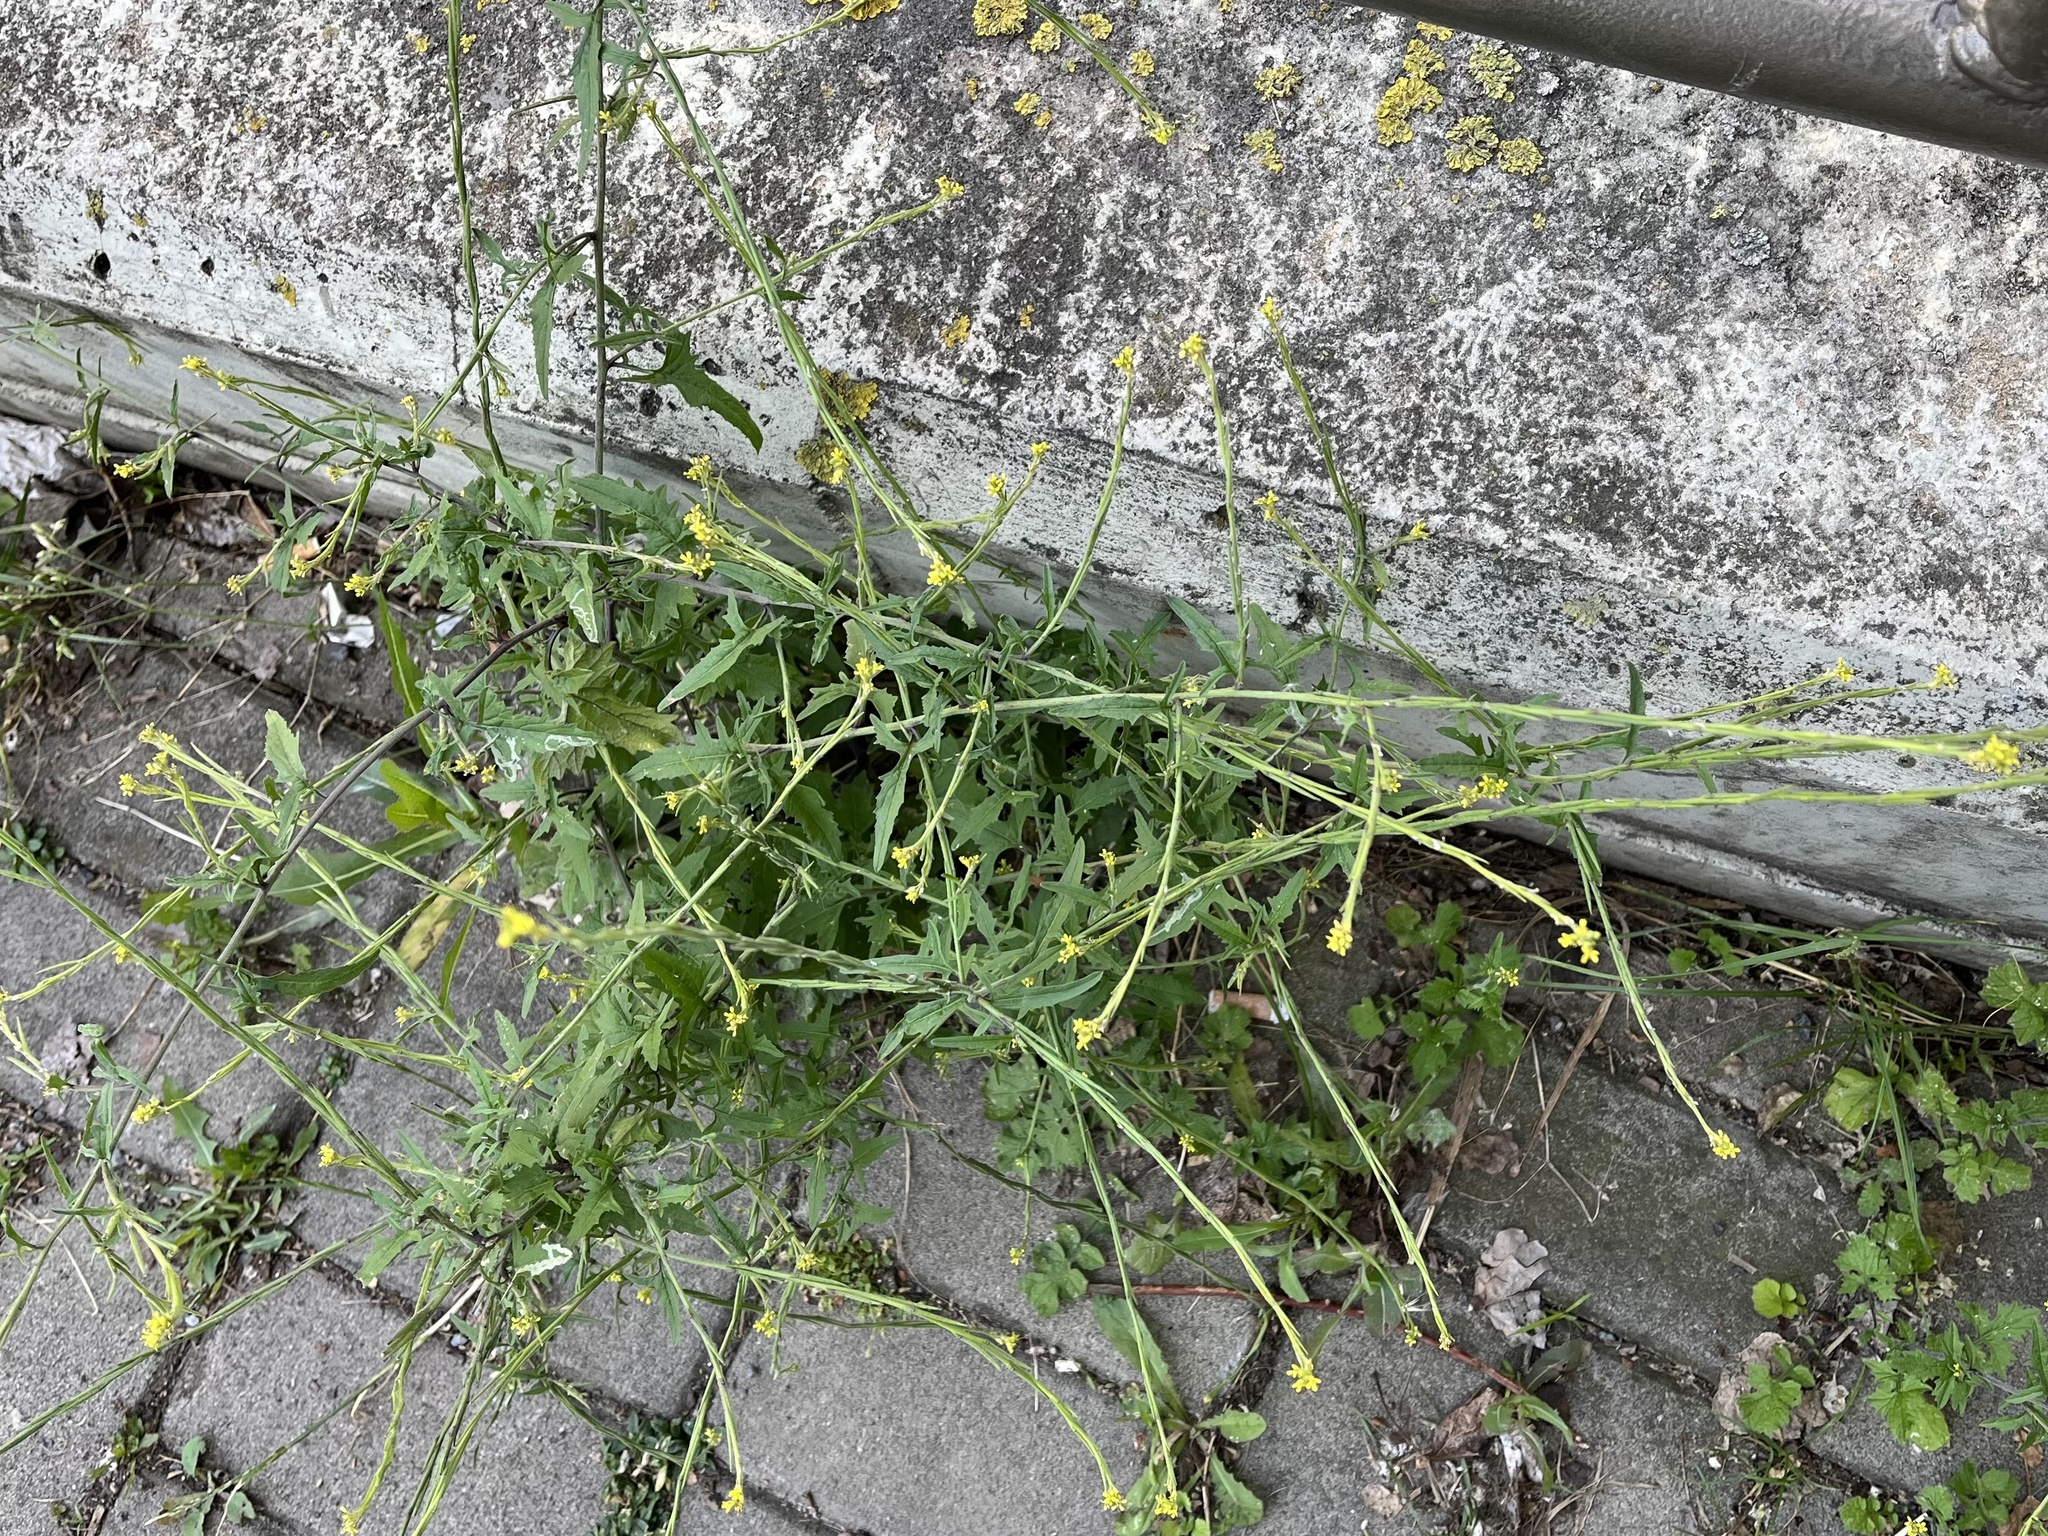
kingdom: Plantae
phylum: Tracheophyta
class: Magnoliopsida
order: Brassicales
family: Brassicaceae
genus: Sisymbrium
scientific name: Sisymbrium officinale
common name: Hedge mustard
